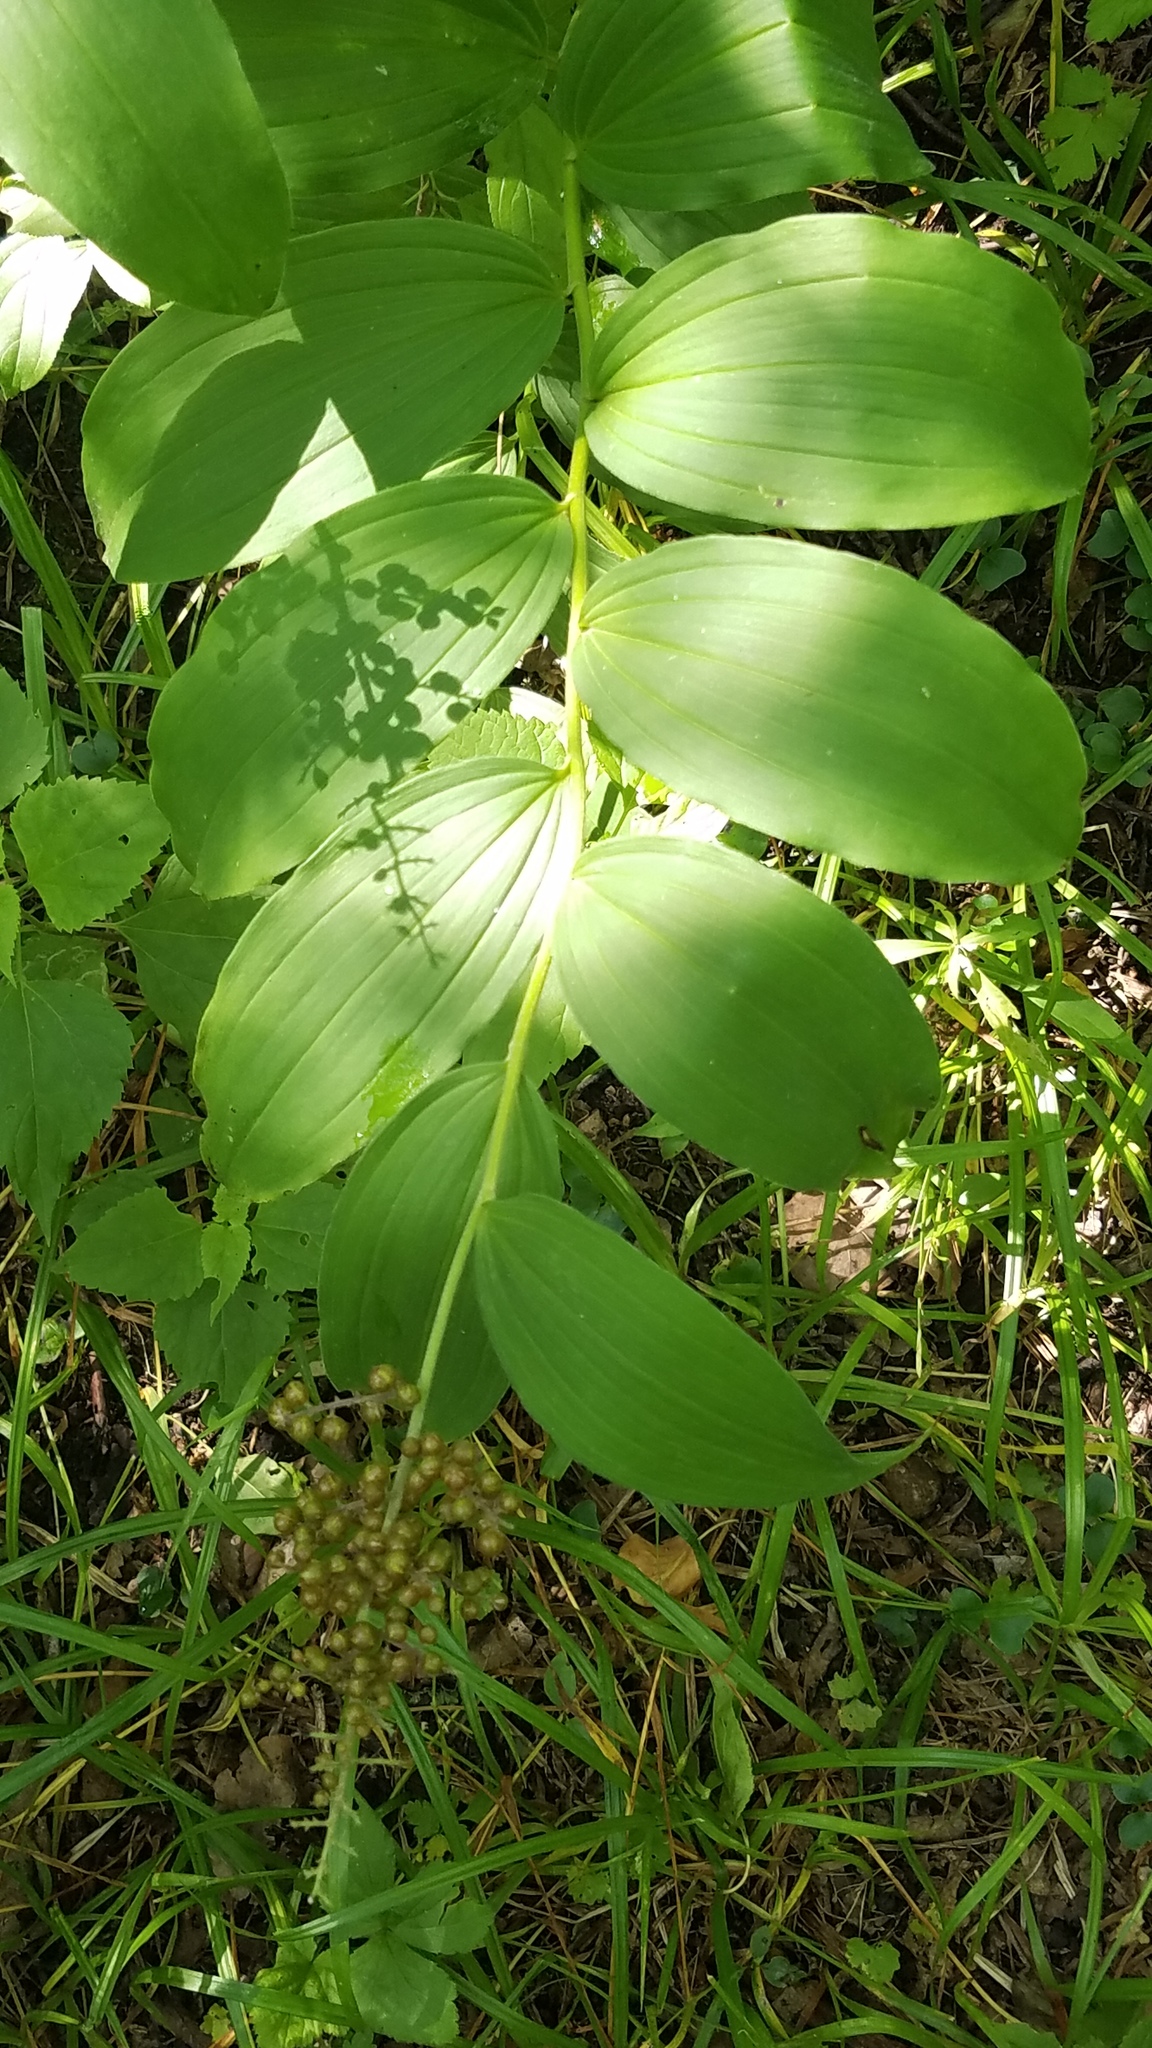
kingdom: Plantae
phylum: Tracheophyta
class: Liliopsida
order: Asparagales
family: Asparagaceae
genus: Maianthemum
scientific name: Maianthemum racemosum
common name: False spikenard
